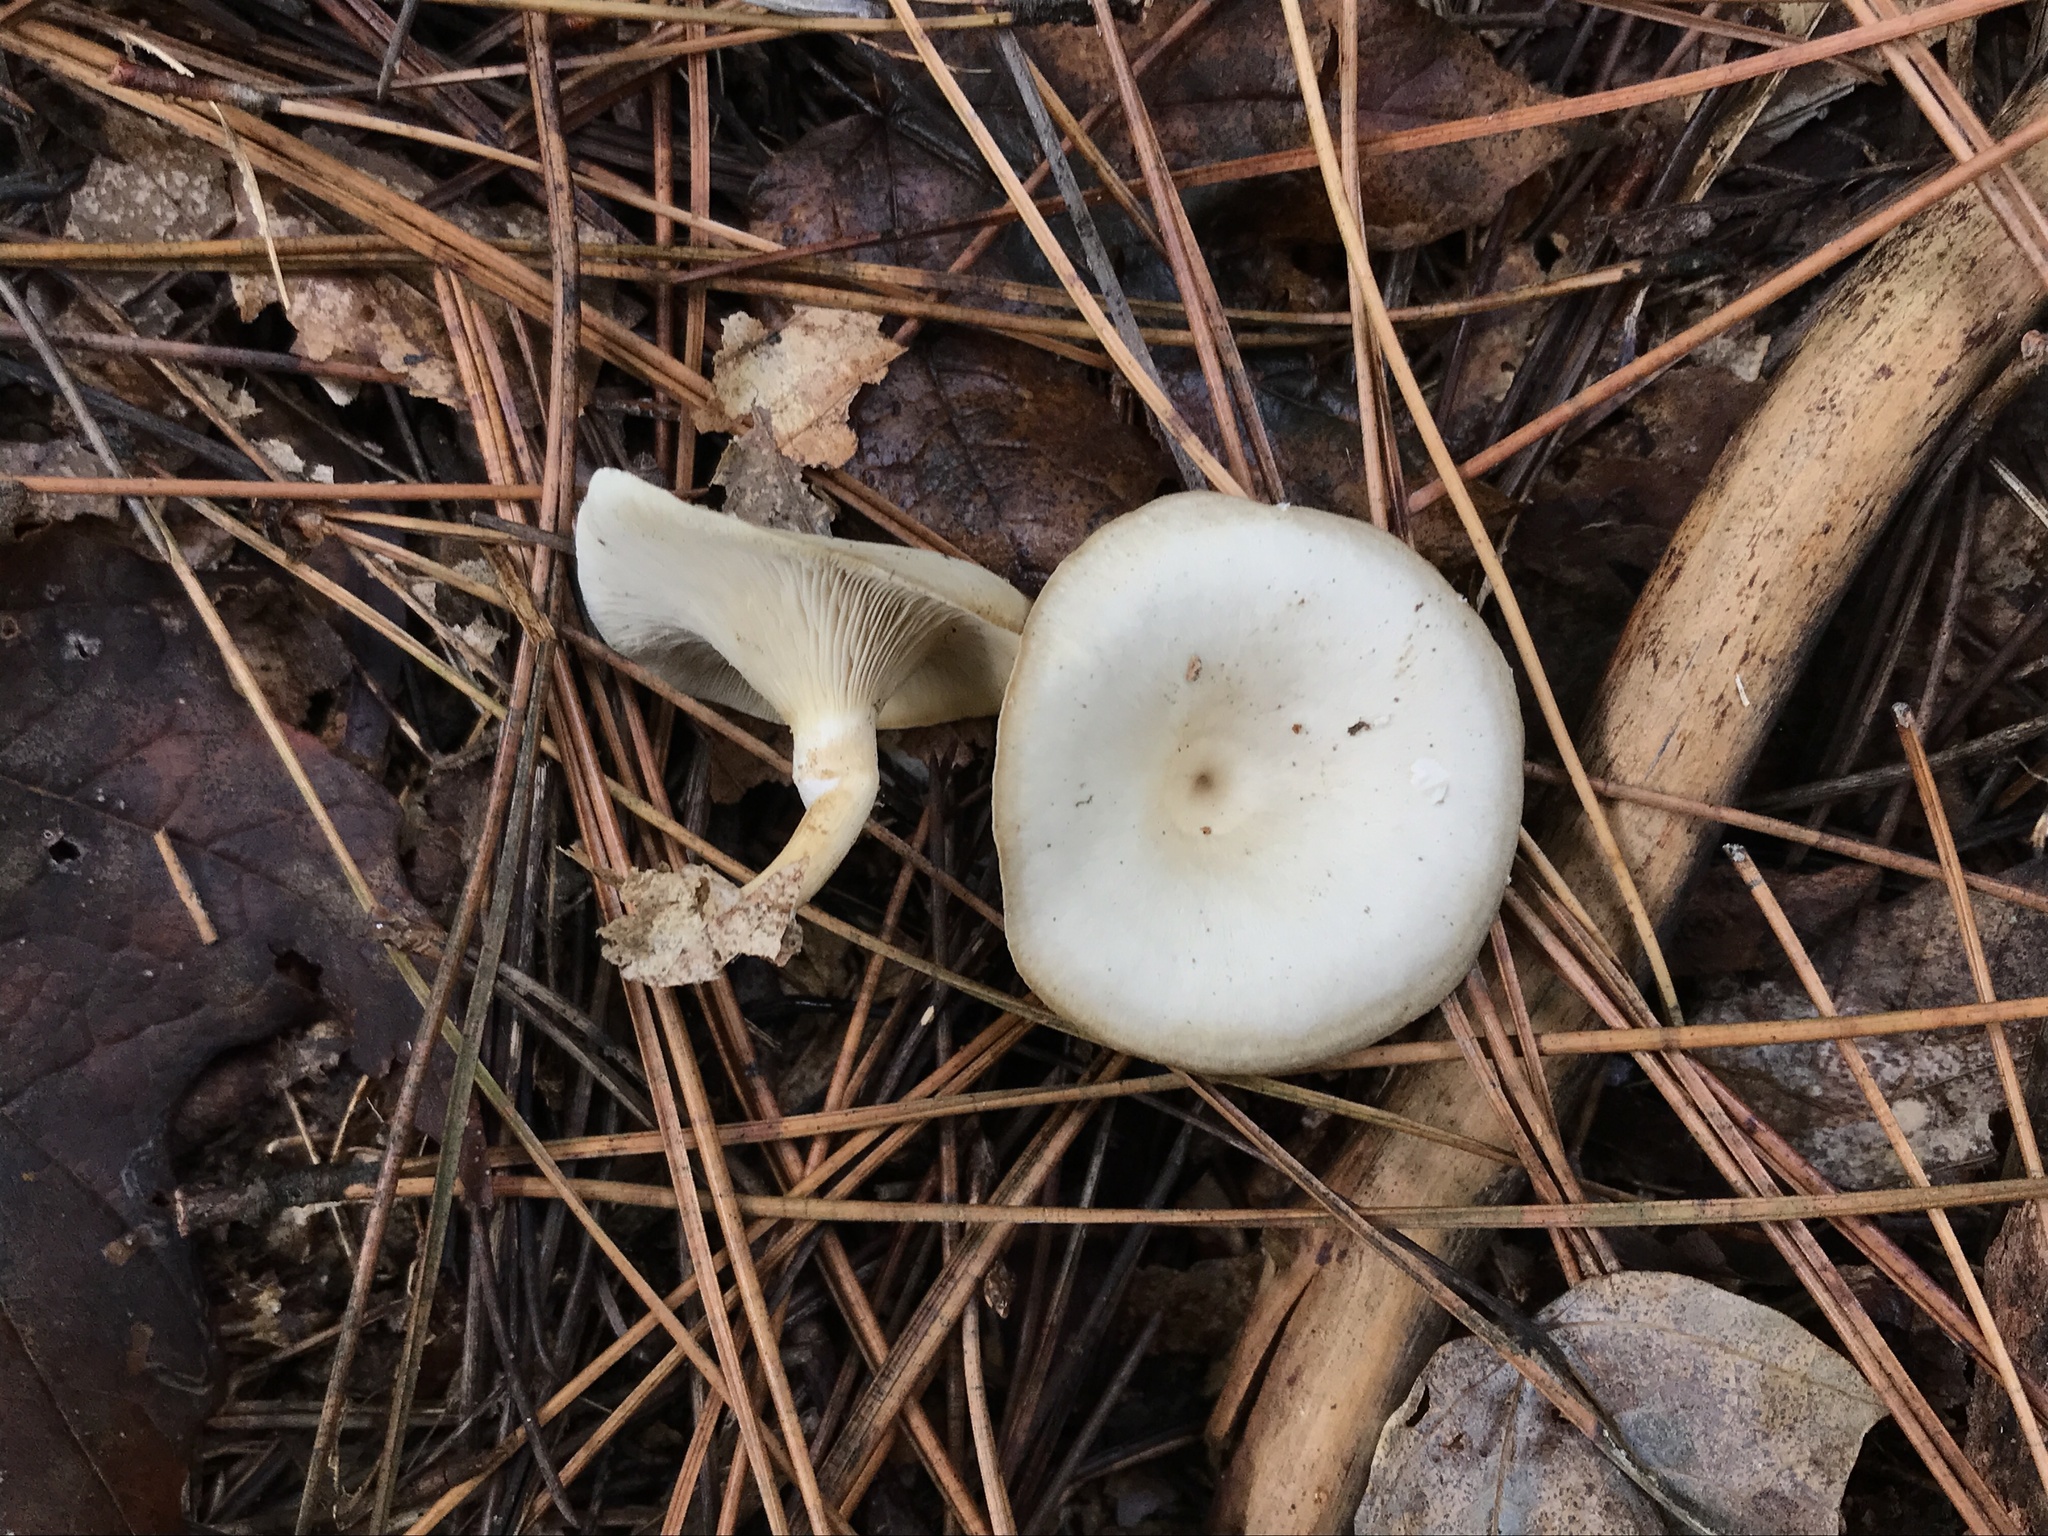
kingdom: Fungi
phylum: Basidiomycota
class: Agaricomycetes
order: Agaricales
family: Tricholomataceae
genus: Singerocybe
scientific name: Singerocybe adirondackensis
